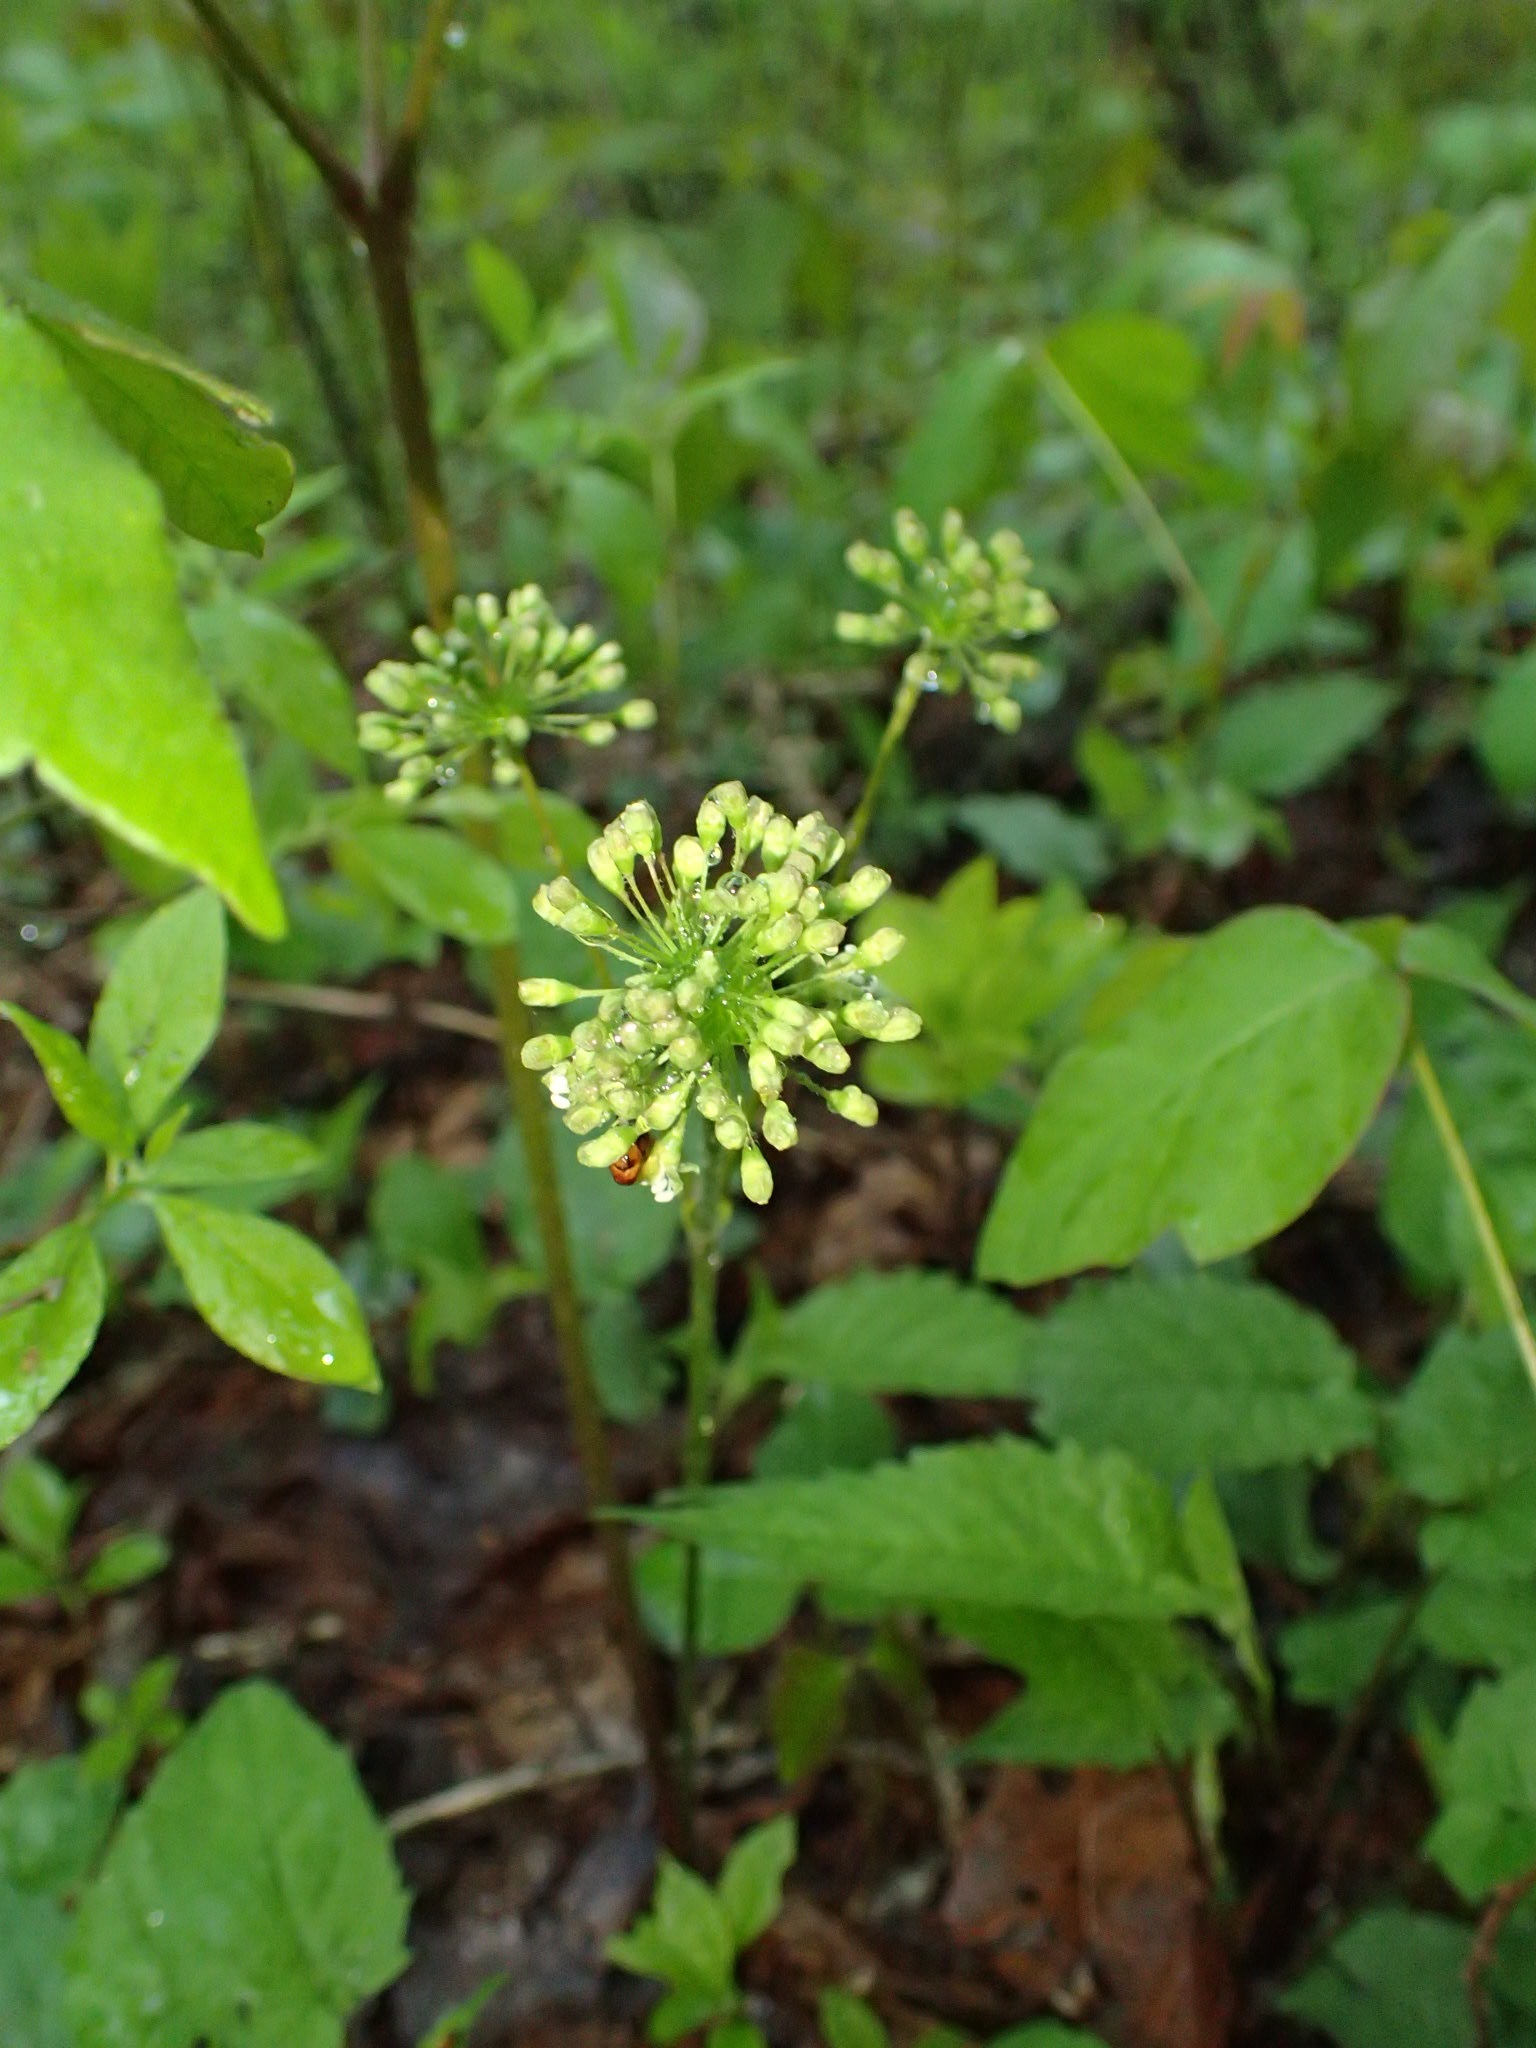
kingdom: Plantae
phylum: Tracheophyta
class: Magnoliopsida
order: Apiales
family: Araliaceae
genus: Aralia
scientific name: Aralia nudicaulis
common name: Wild sarsaparilla
